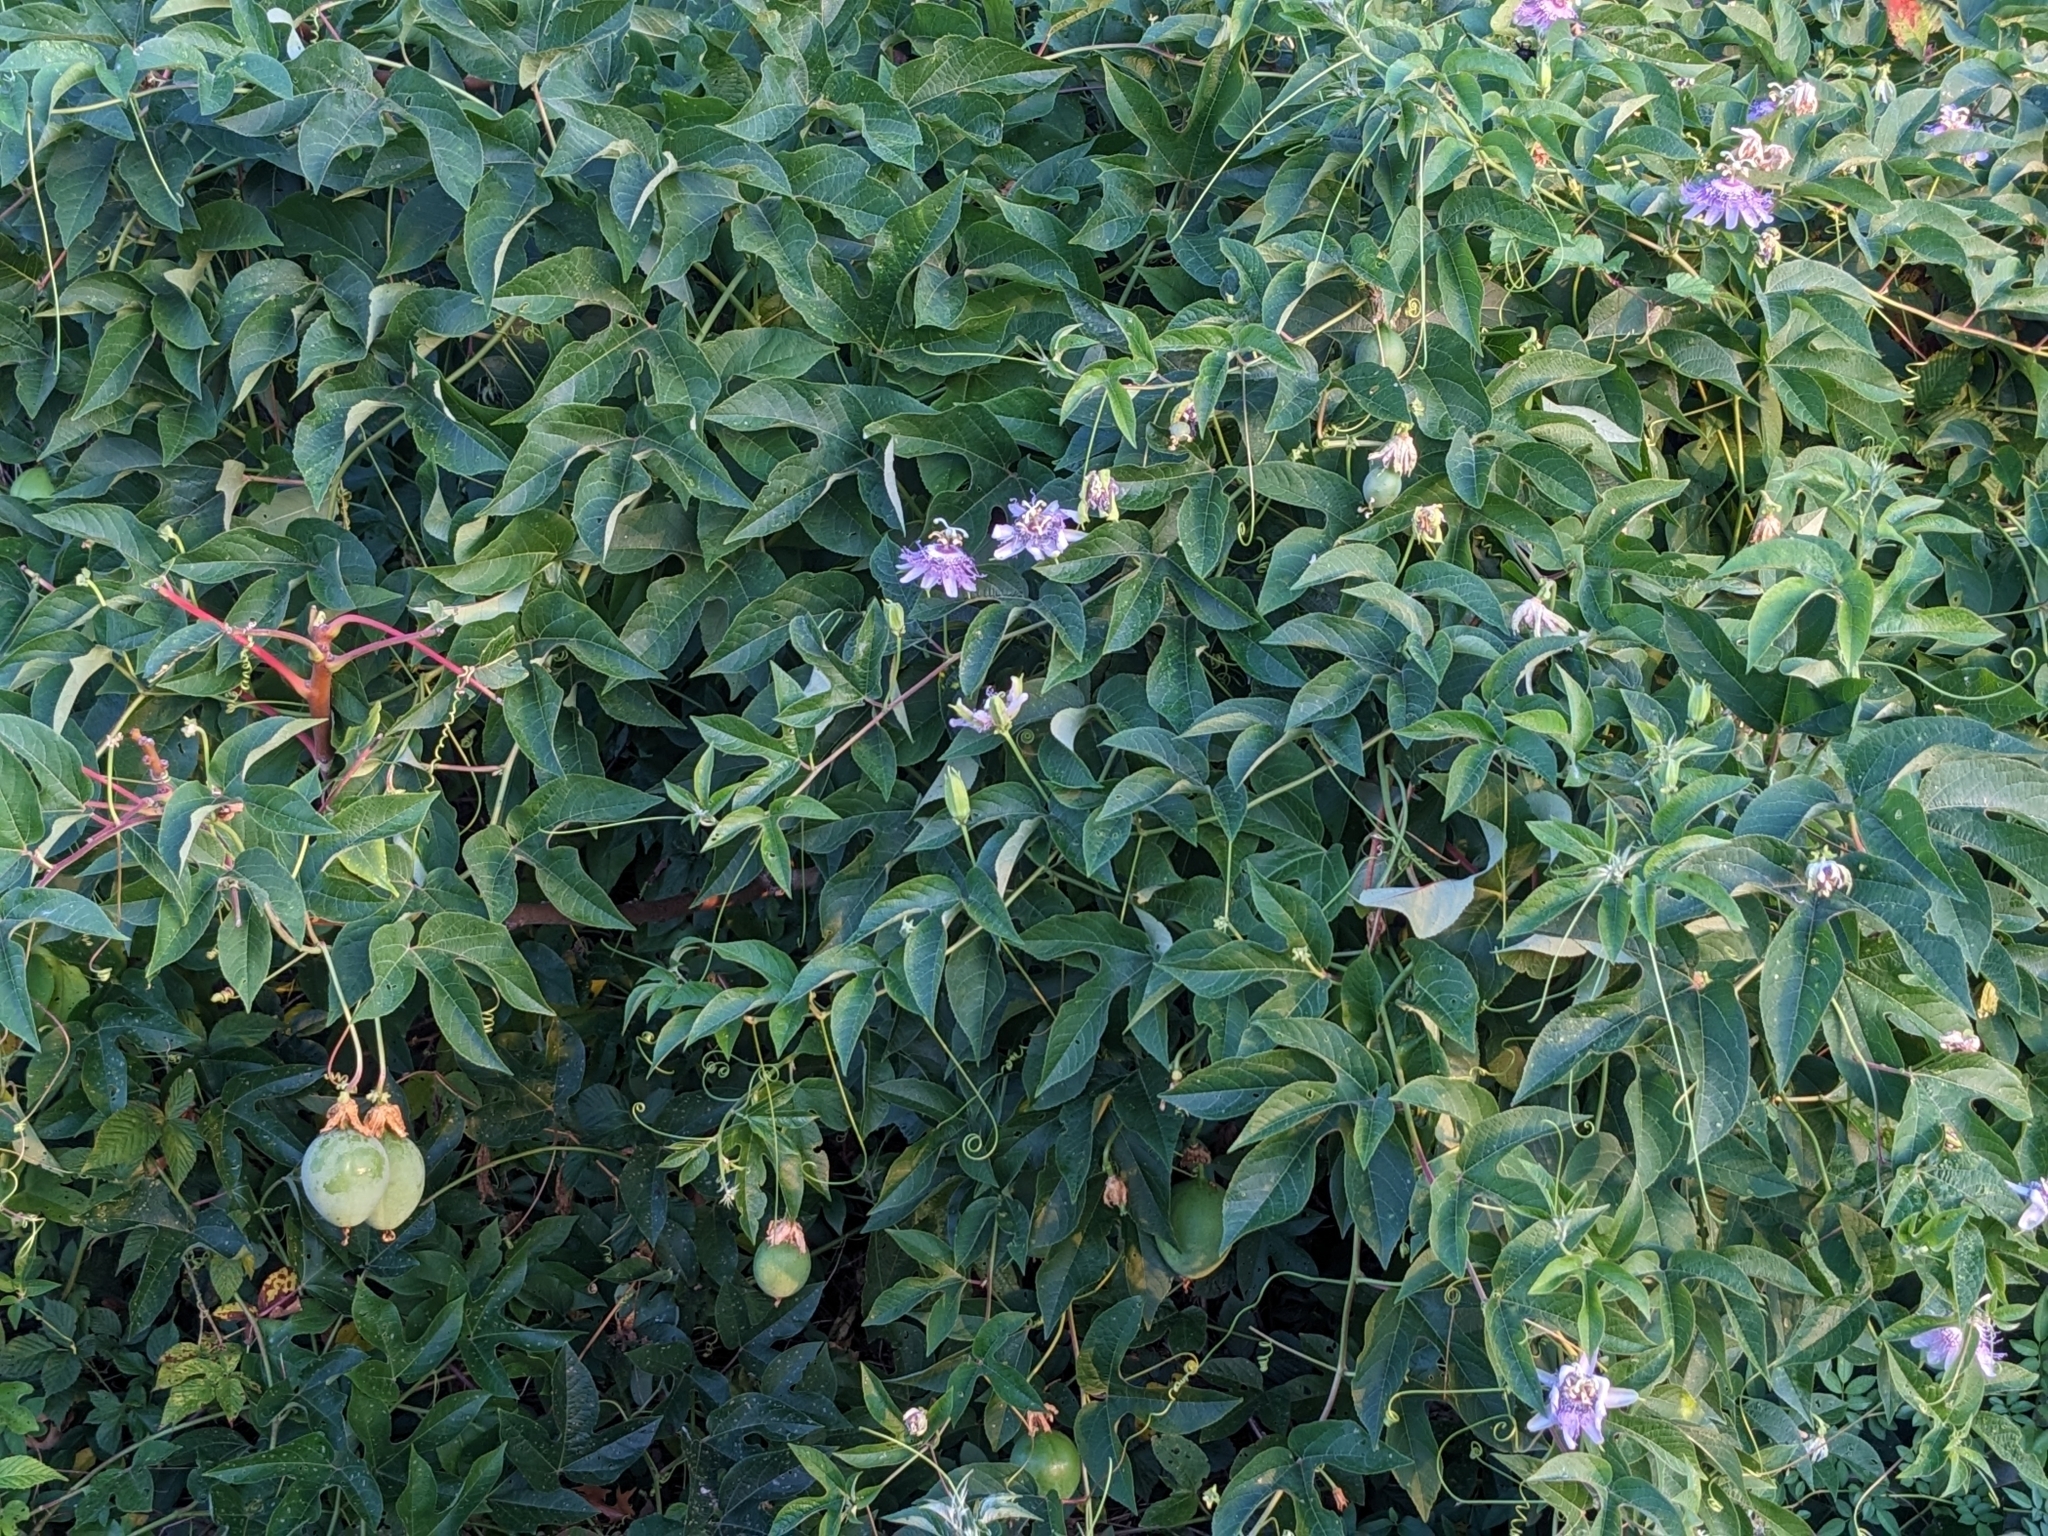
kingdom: Plantae
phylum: Tracheophyta
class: Magnoliopsida
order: Malpighiales
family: Passifloraceae
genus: Passiflora
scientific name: Passiflora incarnata
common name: Apricot-vine
